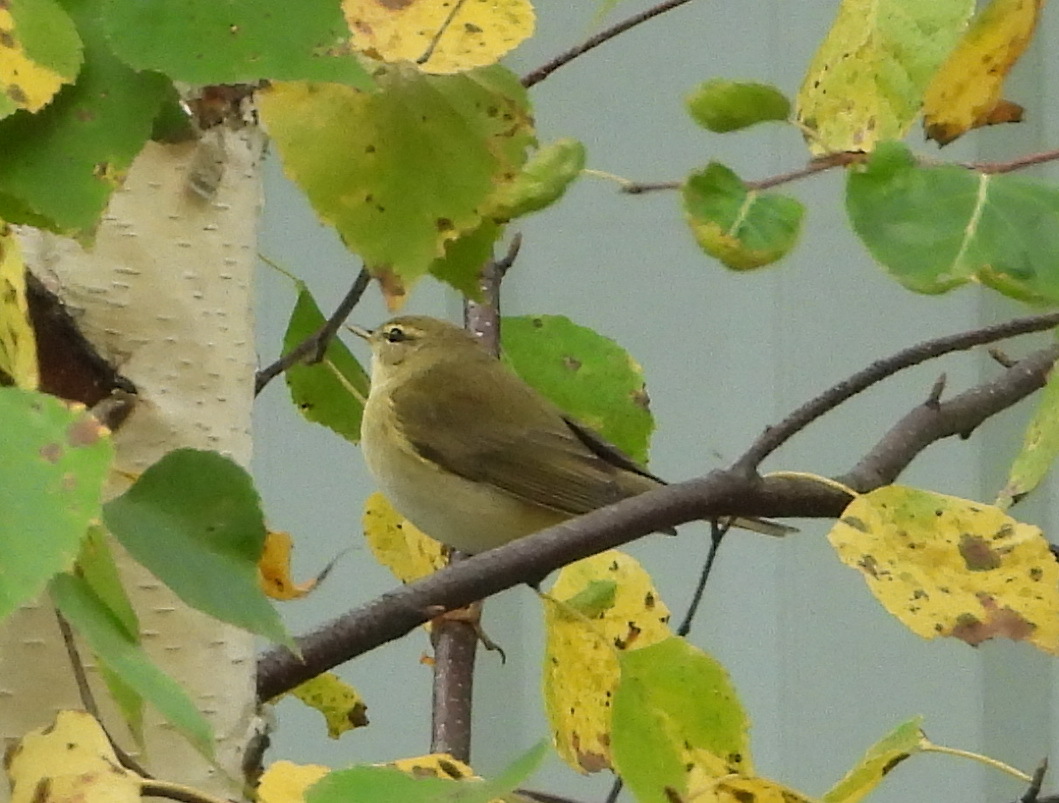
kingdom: Animalia
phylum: Chordata
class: Aves
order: Passeriformes
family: Phylloscopidae
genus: Phylloscopus
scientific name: Phylloscopus trochilus
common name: Willow warbler
